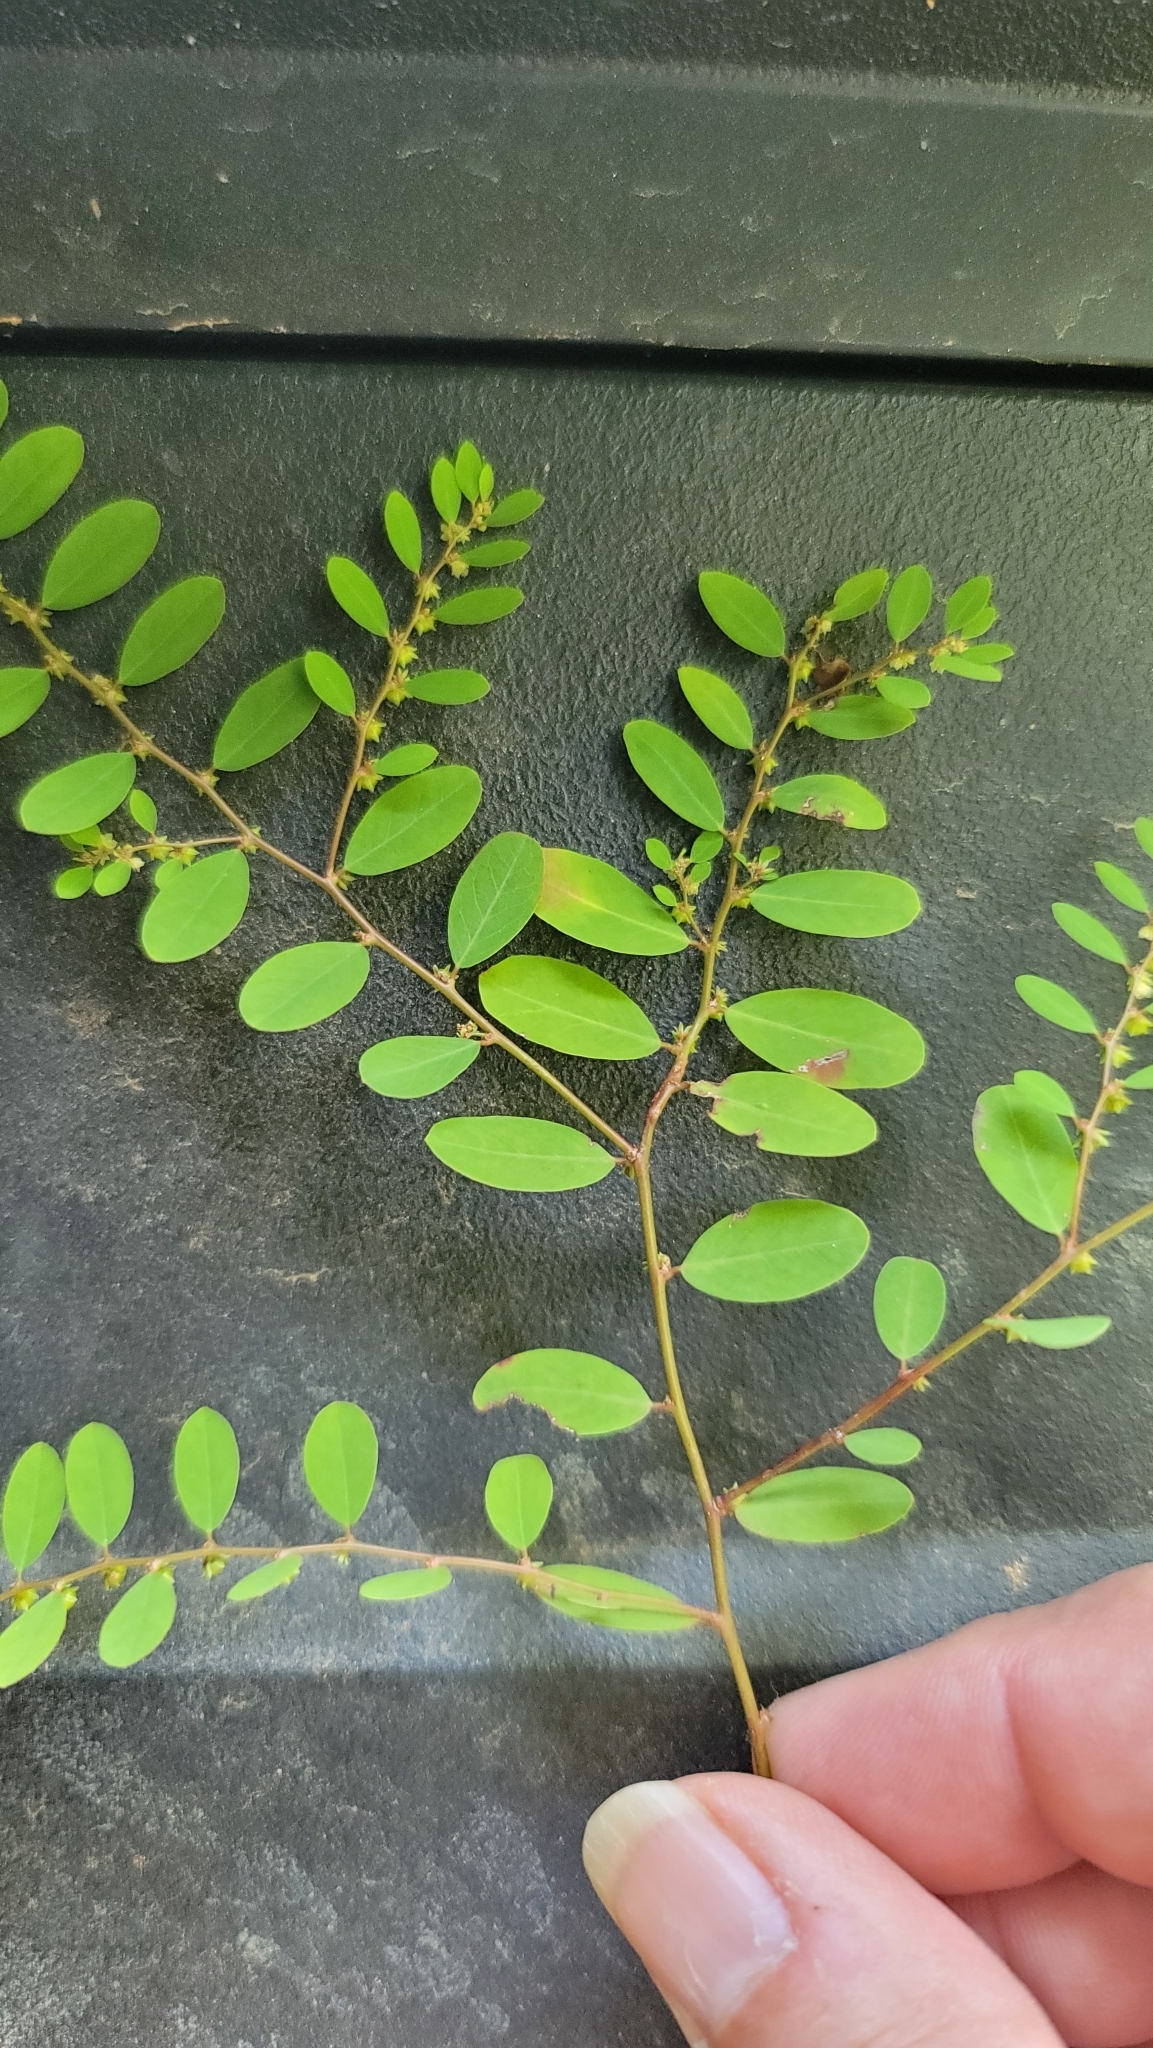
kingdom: Plantae
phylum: Tracheophyta
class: Magnoliopsida
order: Malpighiales
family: Phyllanthaceae
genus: Phyllanthus
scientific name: Phyllanthus caroliniensis
